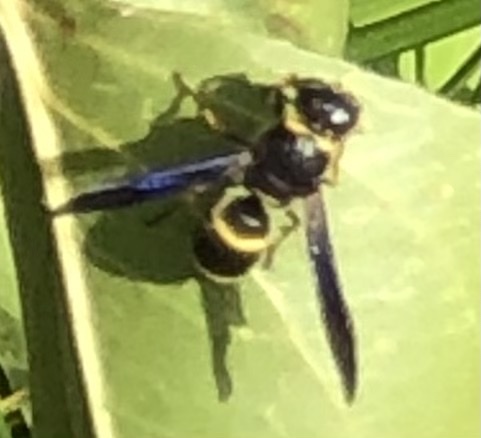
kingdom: Animalia
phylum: Arthropoda
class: Insecta
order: Hymenoptera
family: Eumenidae
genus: Euodynerus
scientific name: Euodynerus
